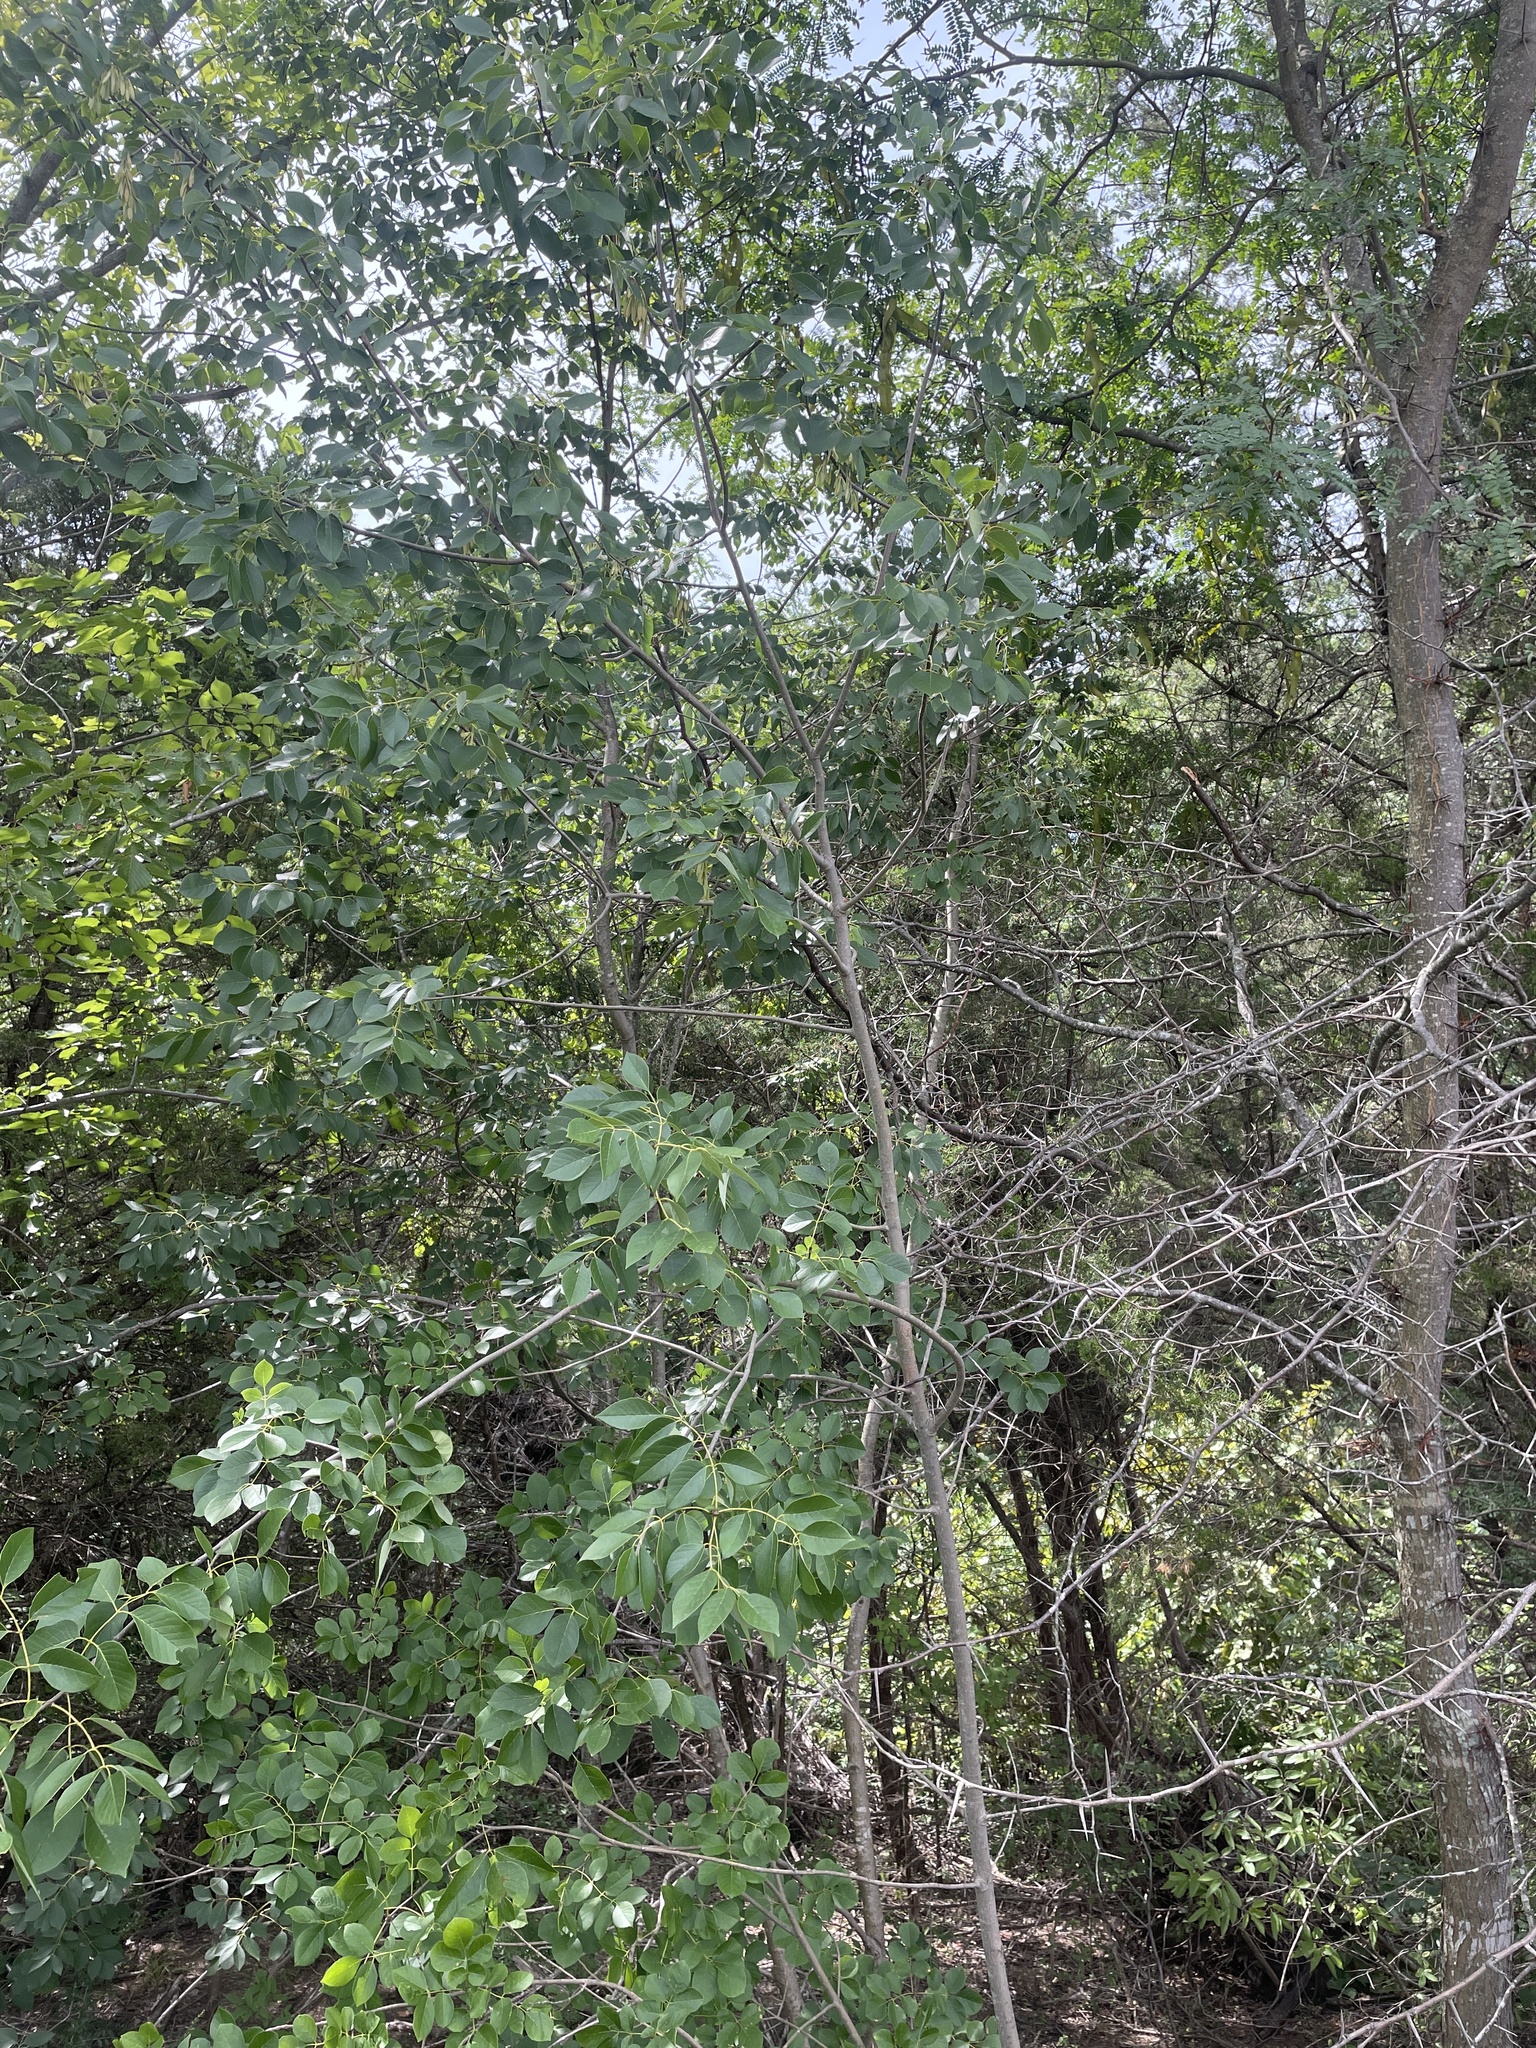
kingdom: Plantae
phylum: Tracheophyta
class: Magnoliopsida
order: Lamiales
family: Oleaceae
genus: Fraxinus
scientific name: Fraxinus albicans
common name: Texas ash
